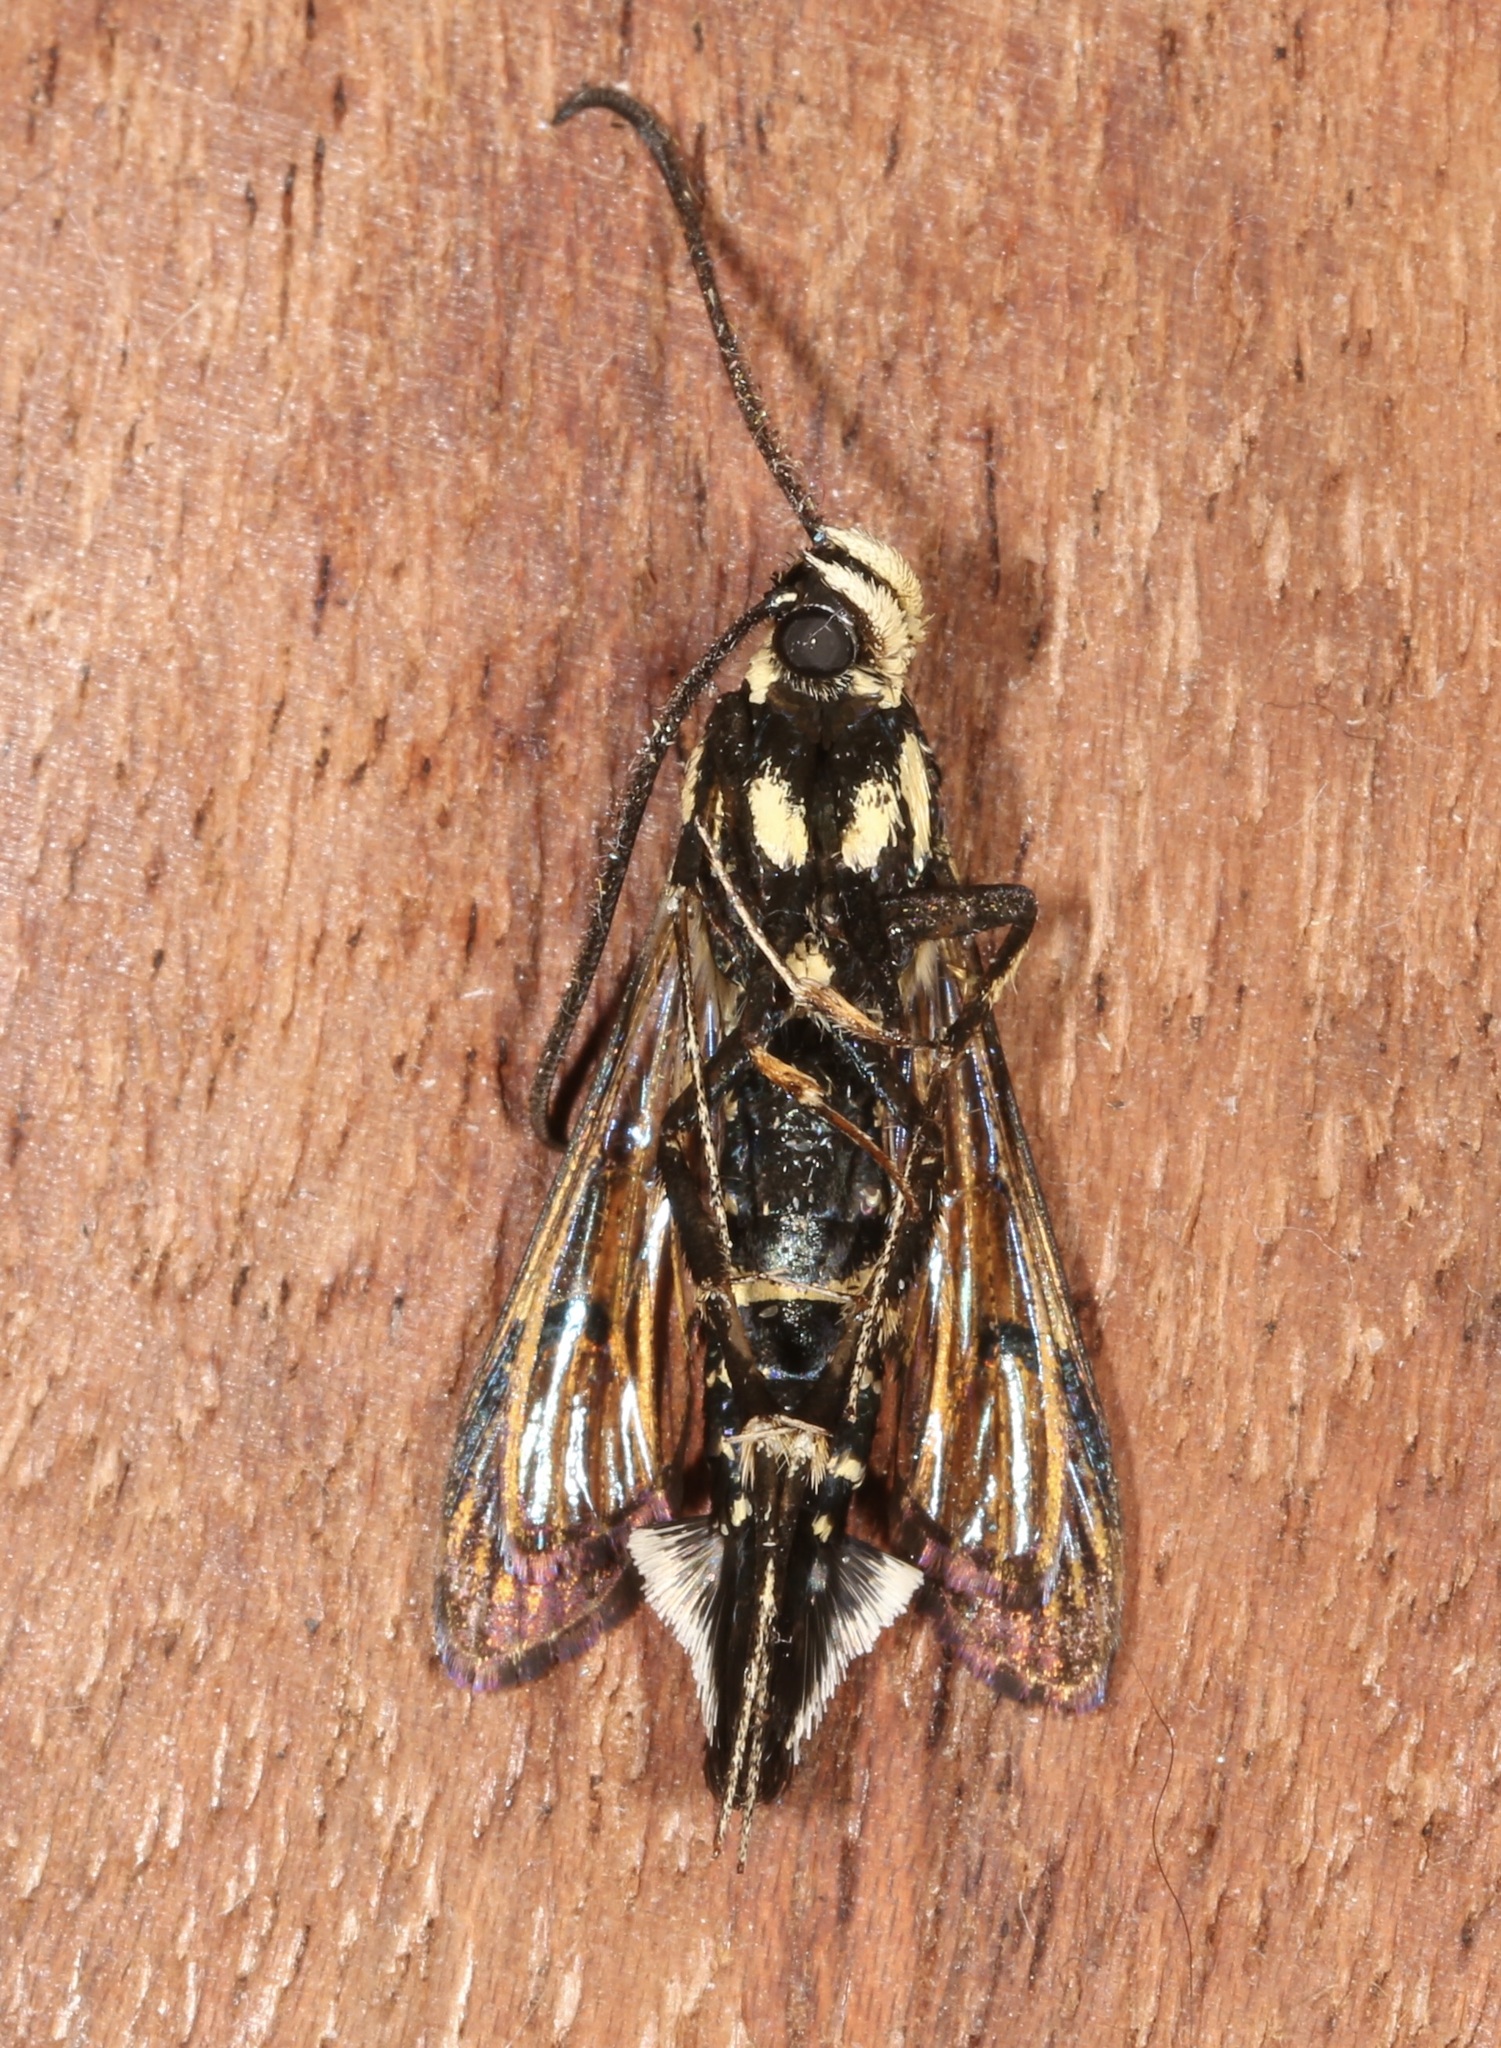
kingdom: Animalia
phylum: Arthropoda
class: Insecta
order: Lepidoptera
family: Sesiidae
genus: Synanthedon
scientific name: Synanthedon exitiosa
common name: Peachtree borer moth
